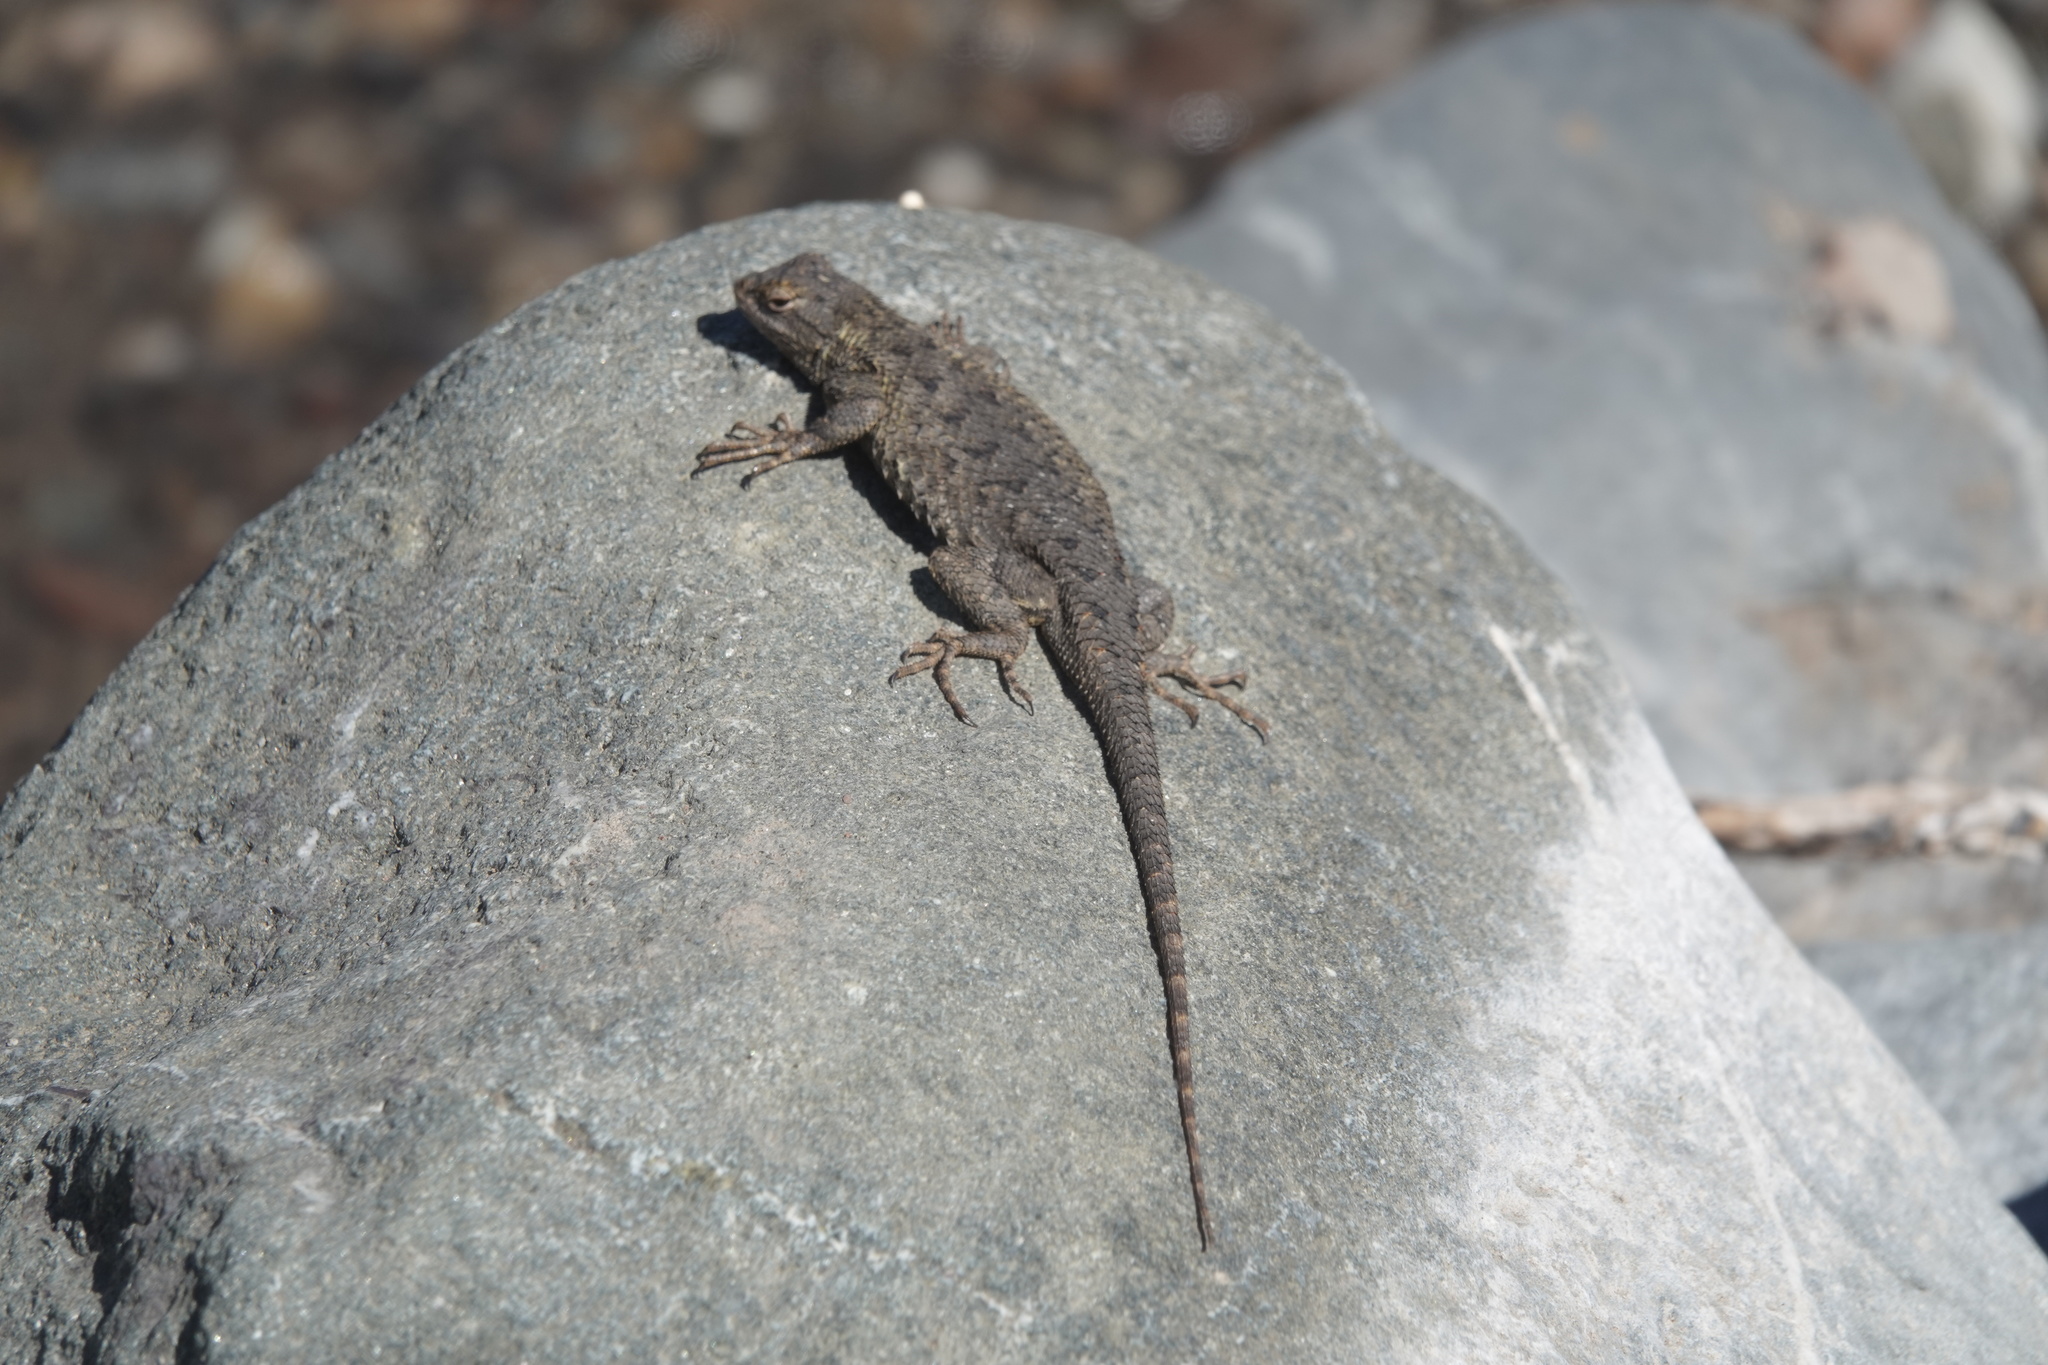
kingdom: Animalia
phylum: Chordata
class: Squamata
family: Phrynosomatidae
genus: Sceloporus
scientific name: Sceloporus occidentalis
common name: Western fence lizard
